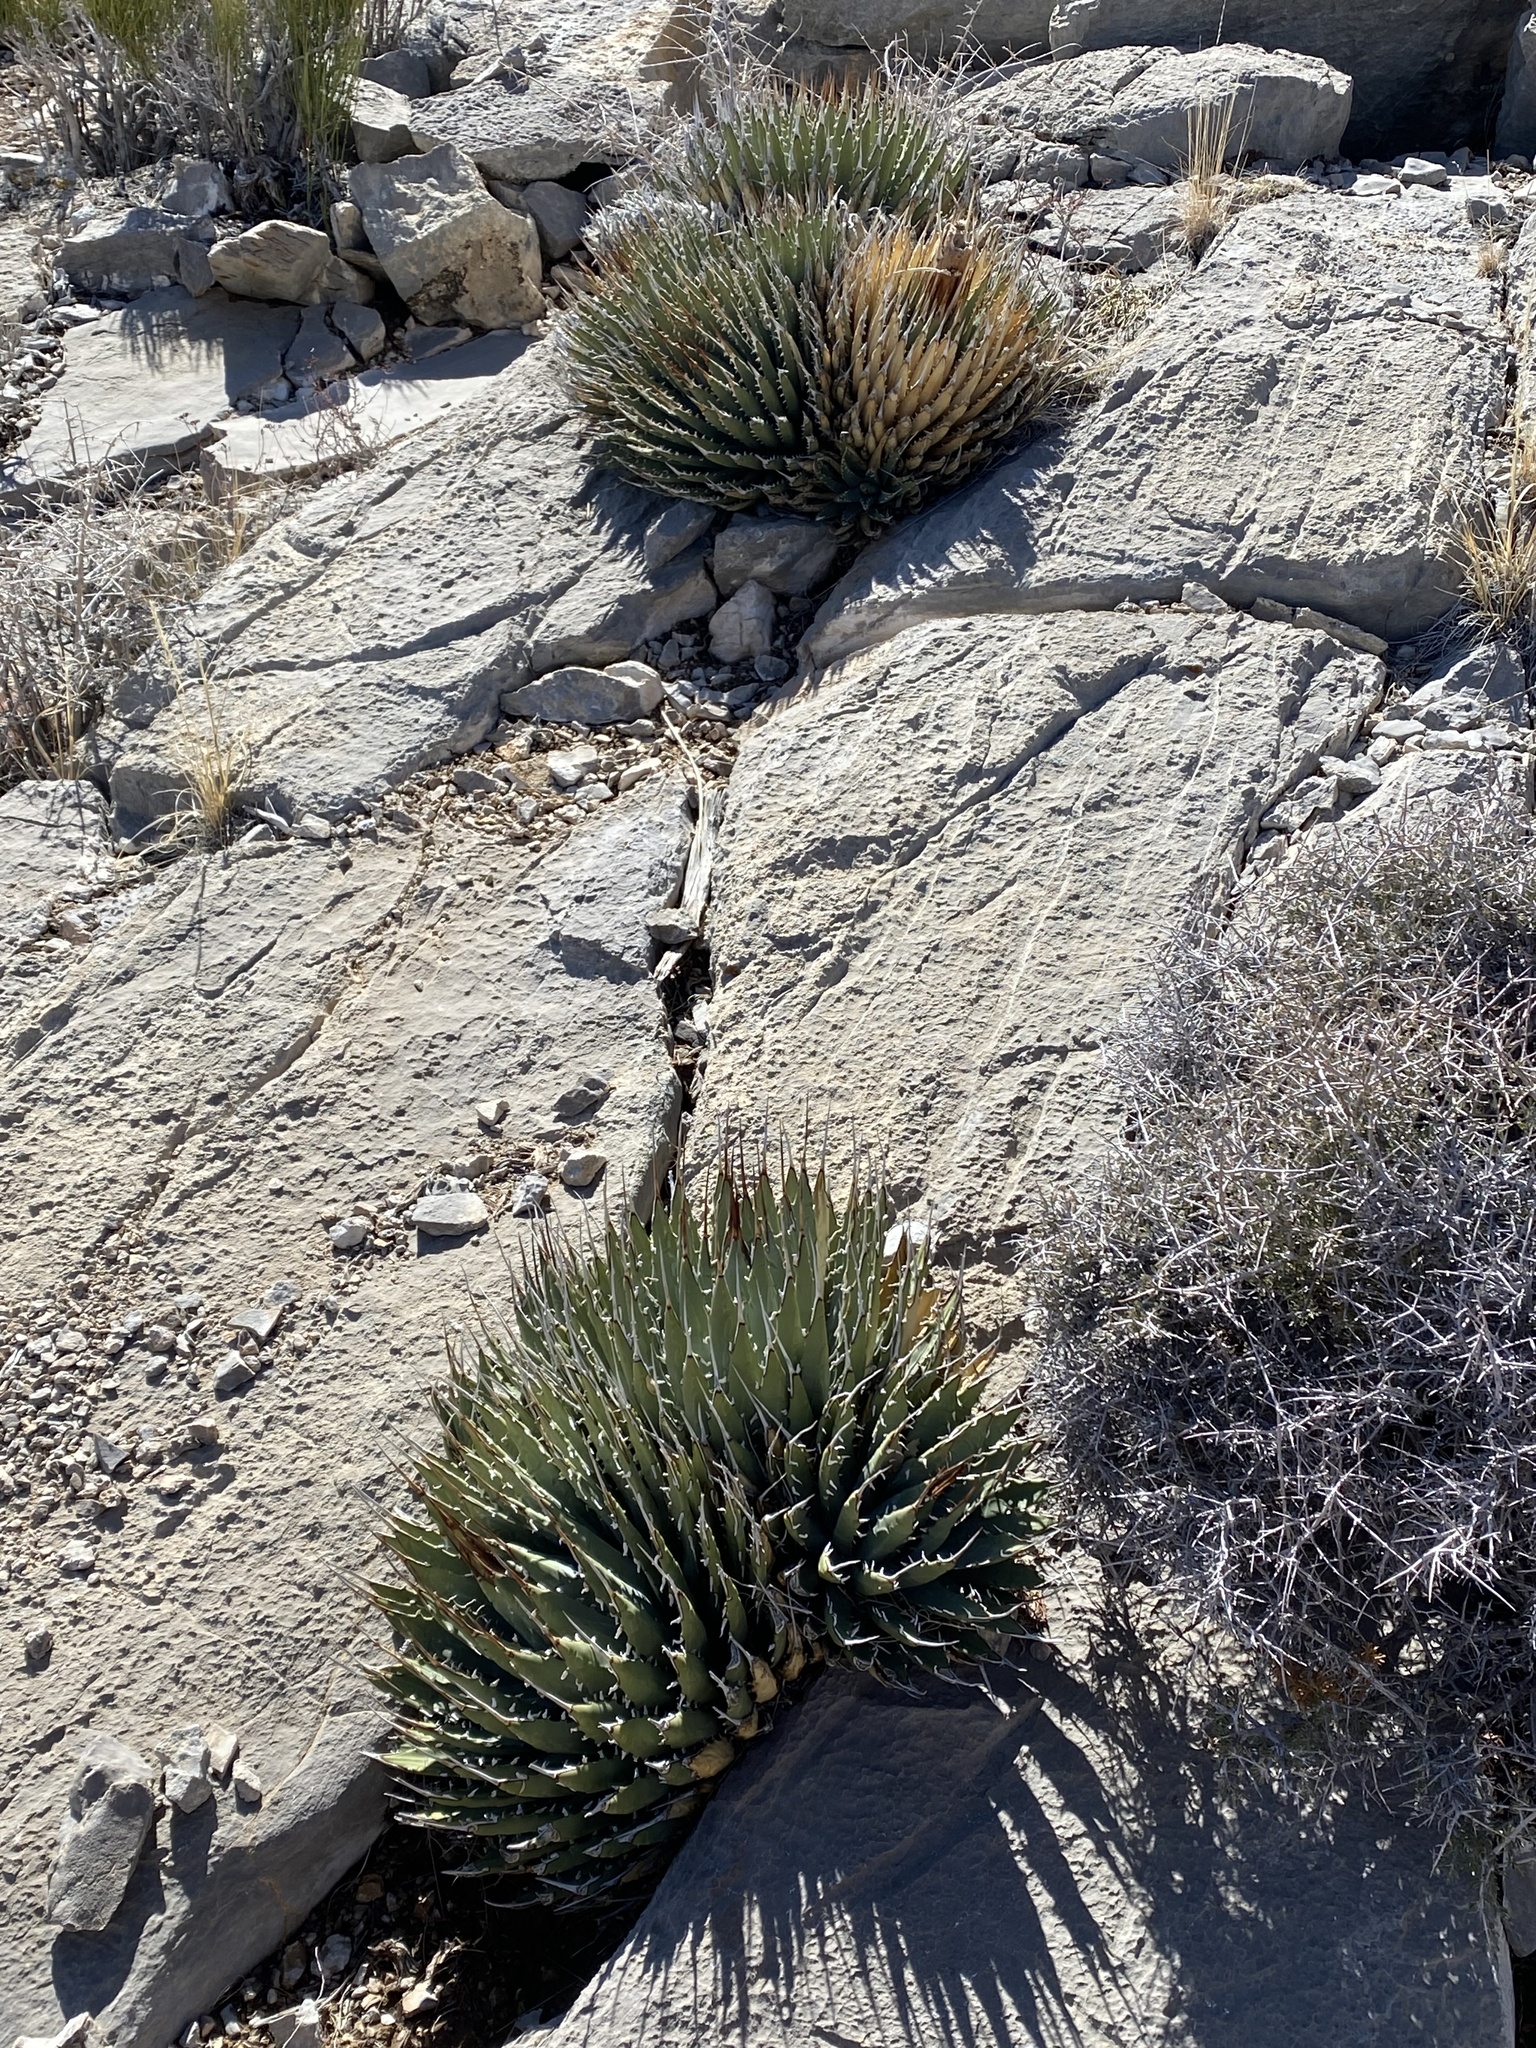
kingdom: Plantae
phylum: Tracheophyta
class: Liliopsida
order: Asparagales
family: Asparagaceae
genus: Agave
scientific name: Agave utahensis
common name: Utah agave
